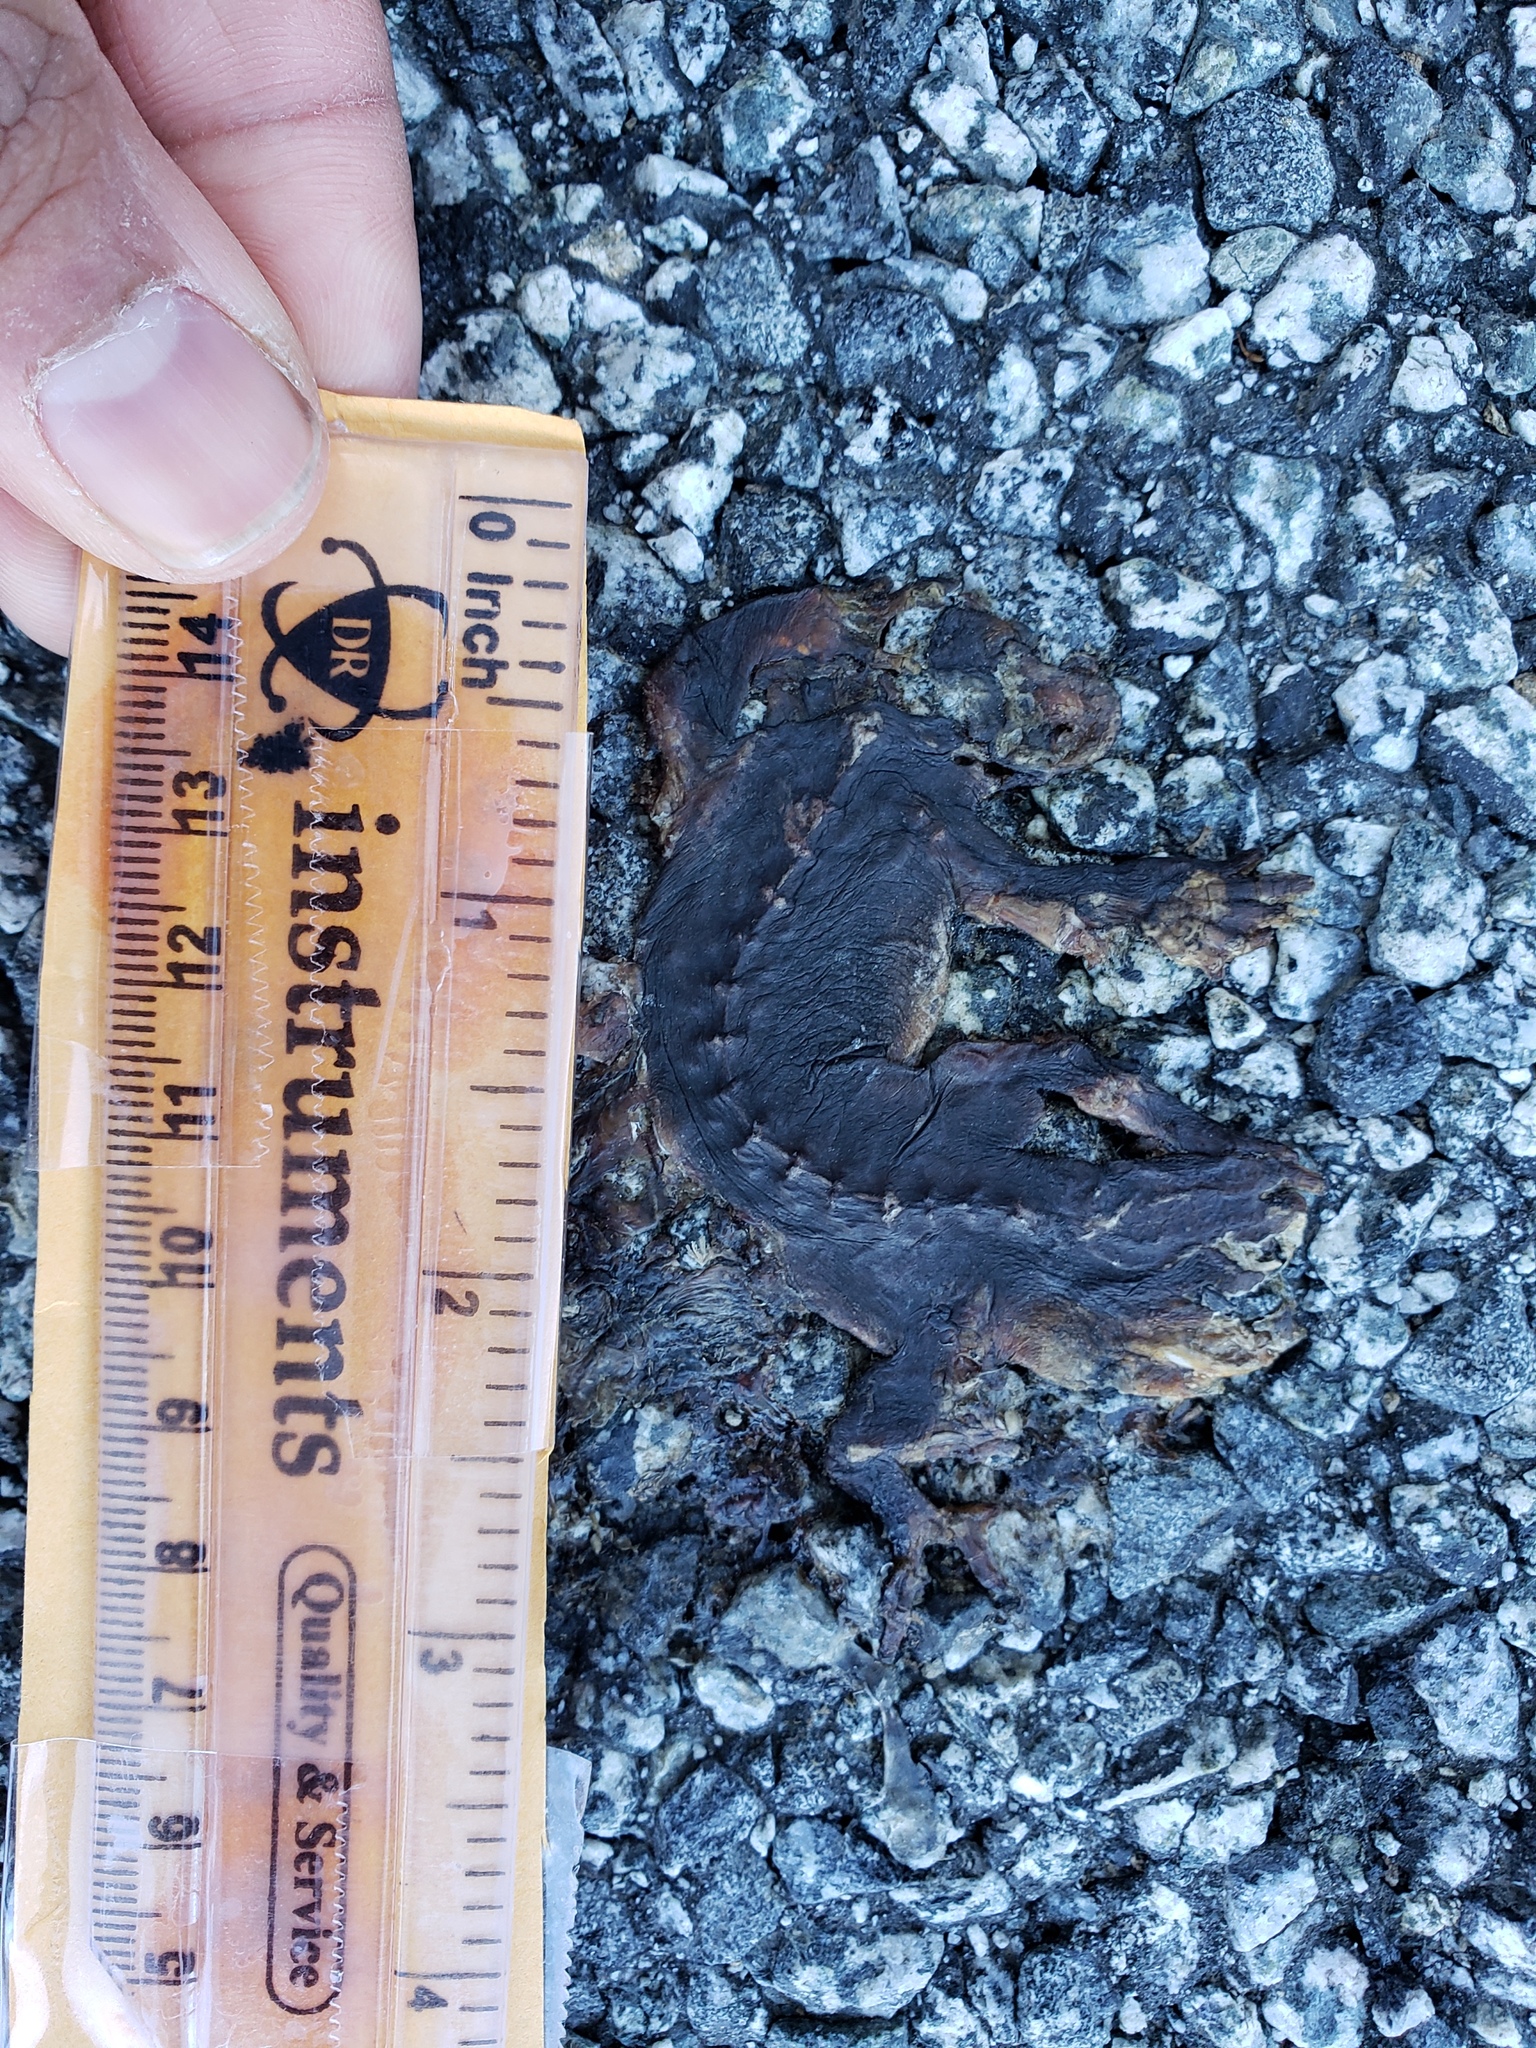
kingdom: Animalia
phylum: Chordata
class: Amphibia
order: Caudata
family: Salamandridae
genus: Taricha
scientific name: Taricha
